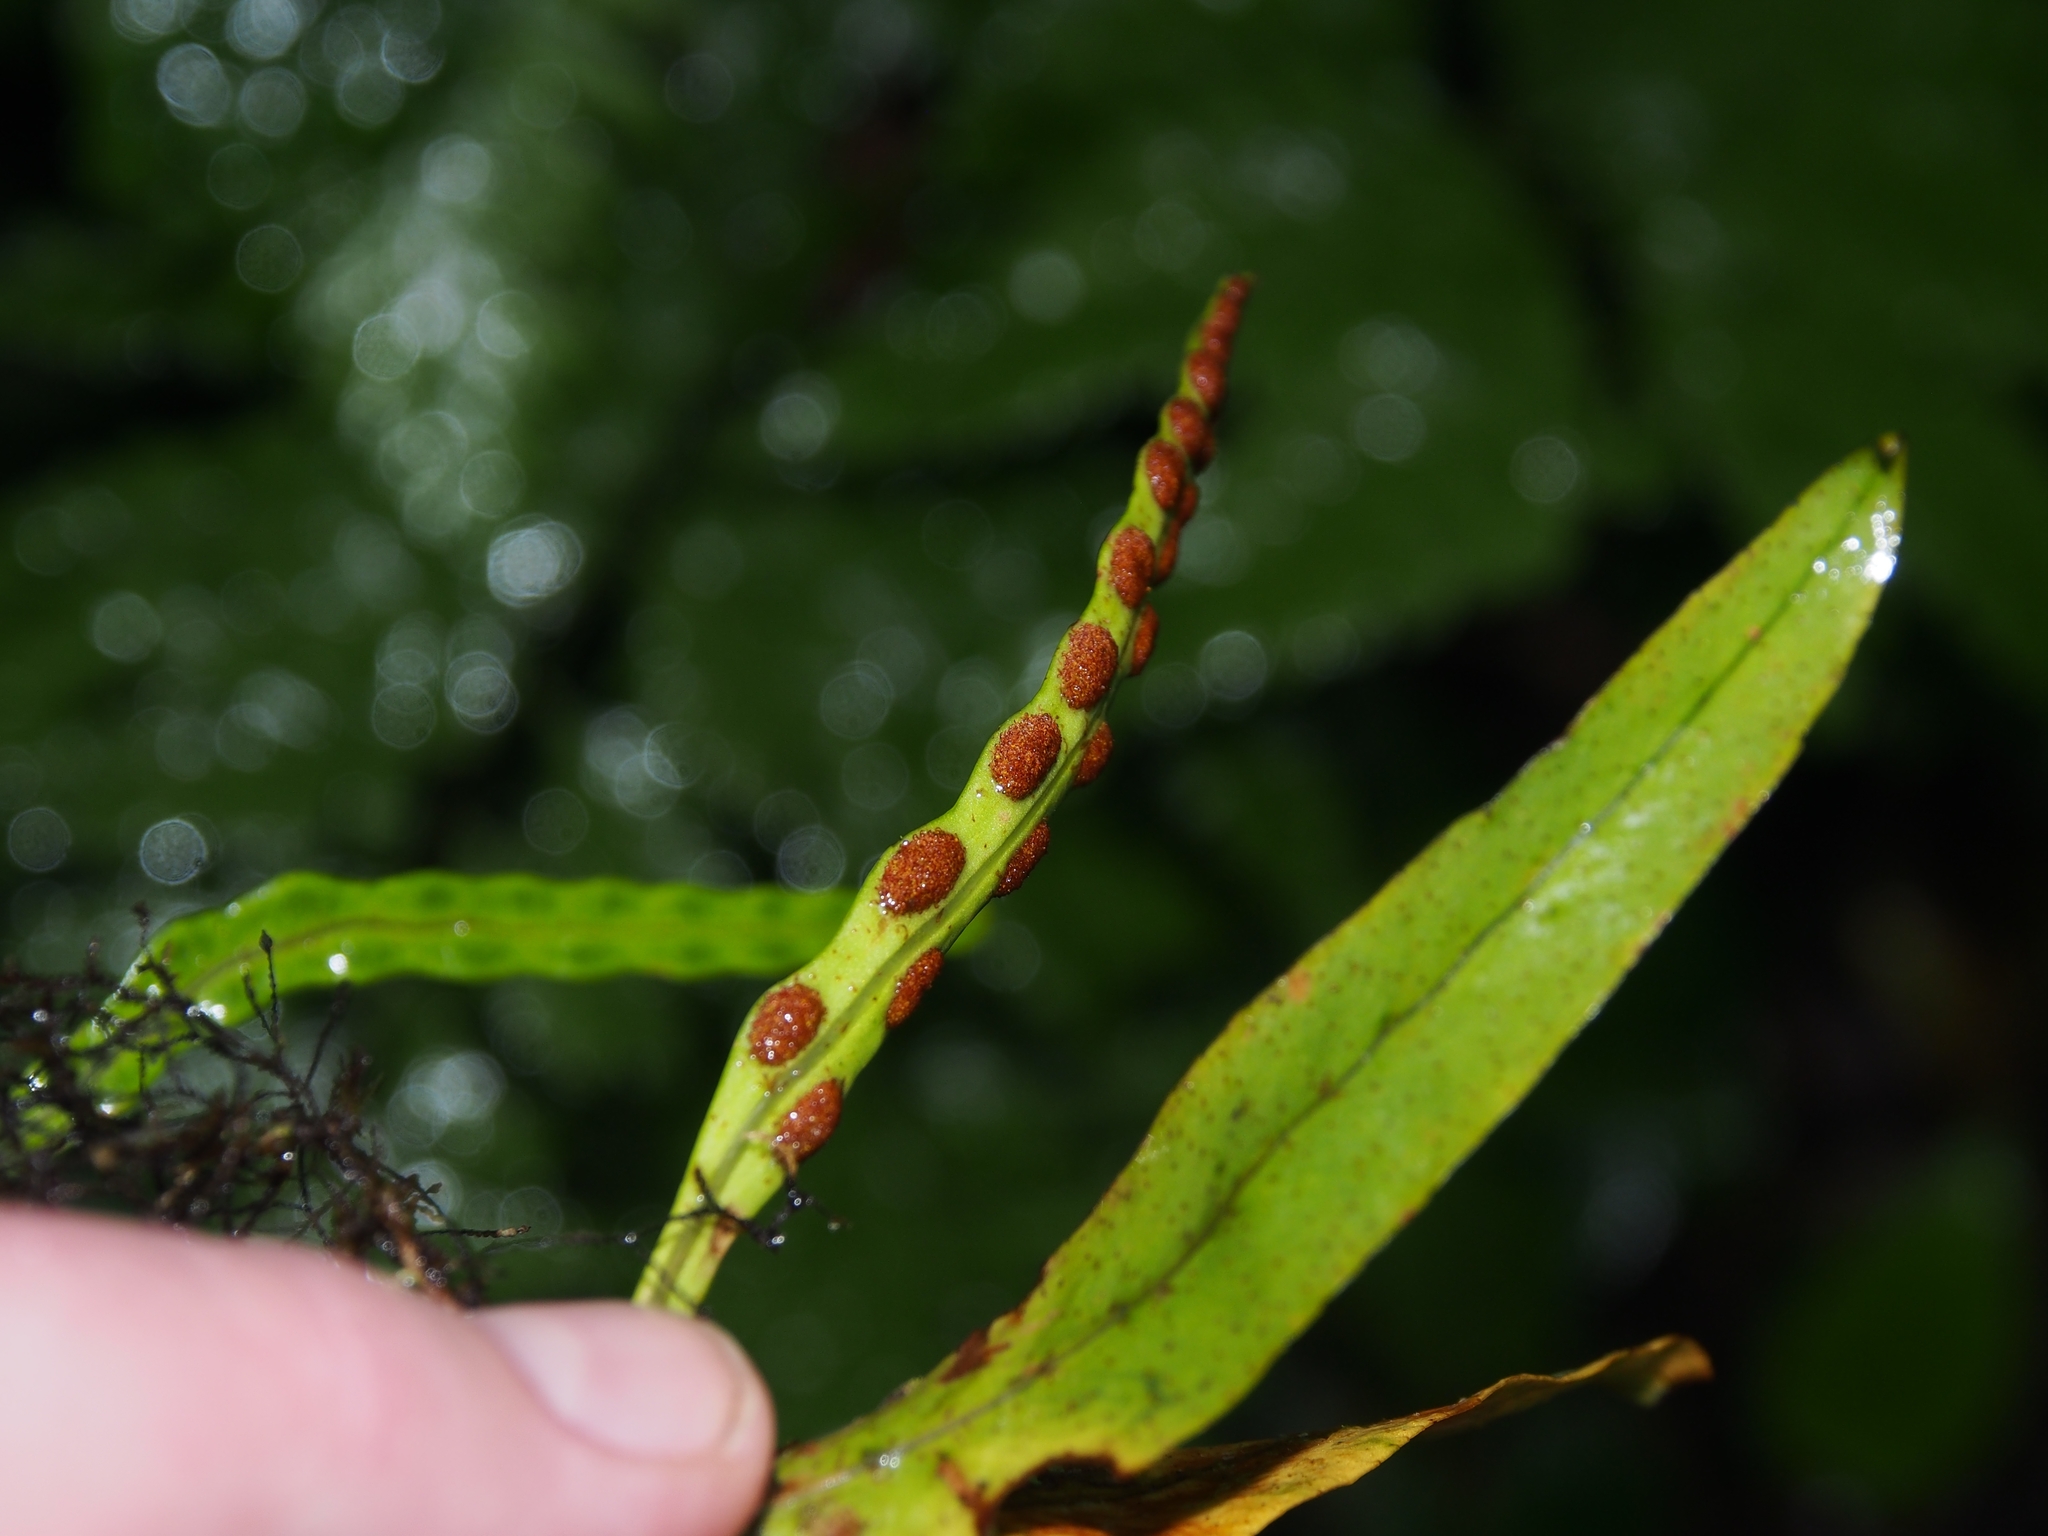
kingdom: Plantae
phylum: Tracheophyta
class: Polypodiopsida
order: Polypodiales
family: Polypodiaceae
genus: Pleopeltis
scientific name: Pleopeltis macrocarpa
